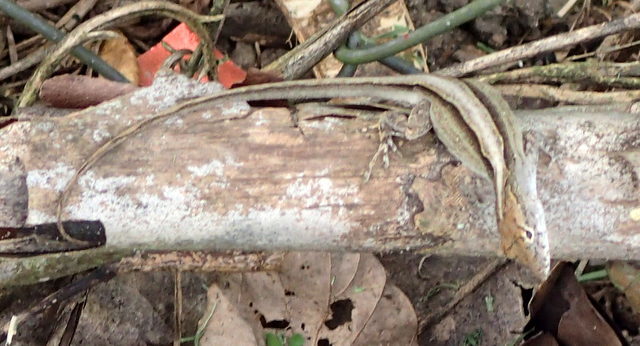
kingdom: Animalia
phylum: Chordata
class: Squamata
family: Dactyloidae
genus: Anolis
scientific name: Anolis sagrei
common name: Brown anole
